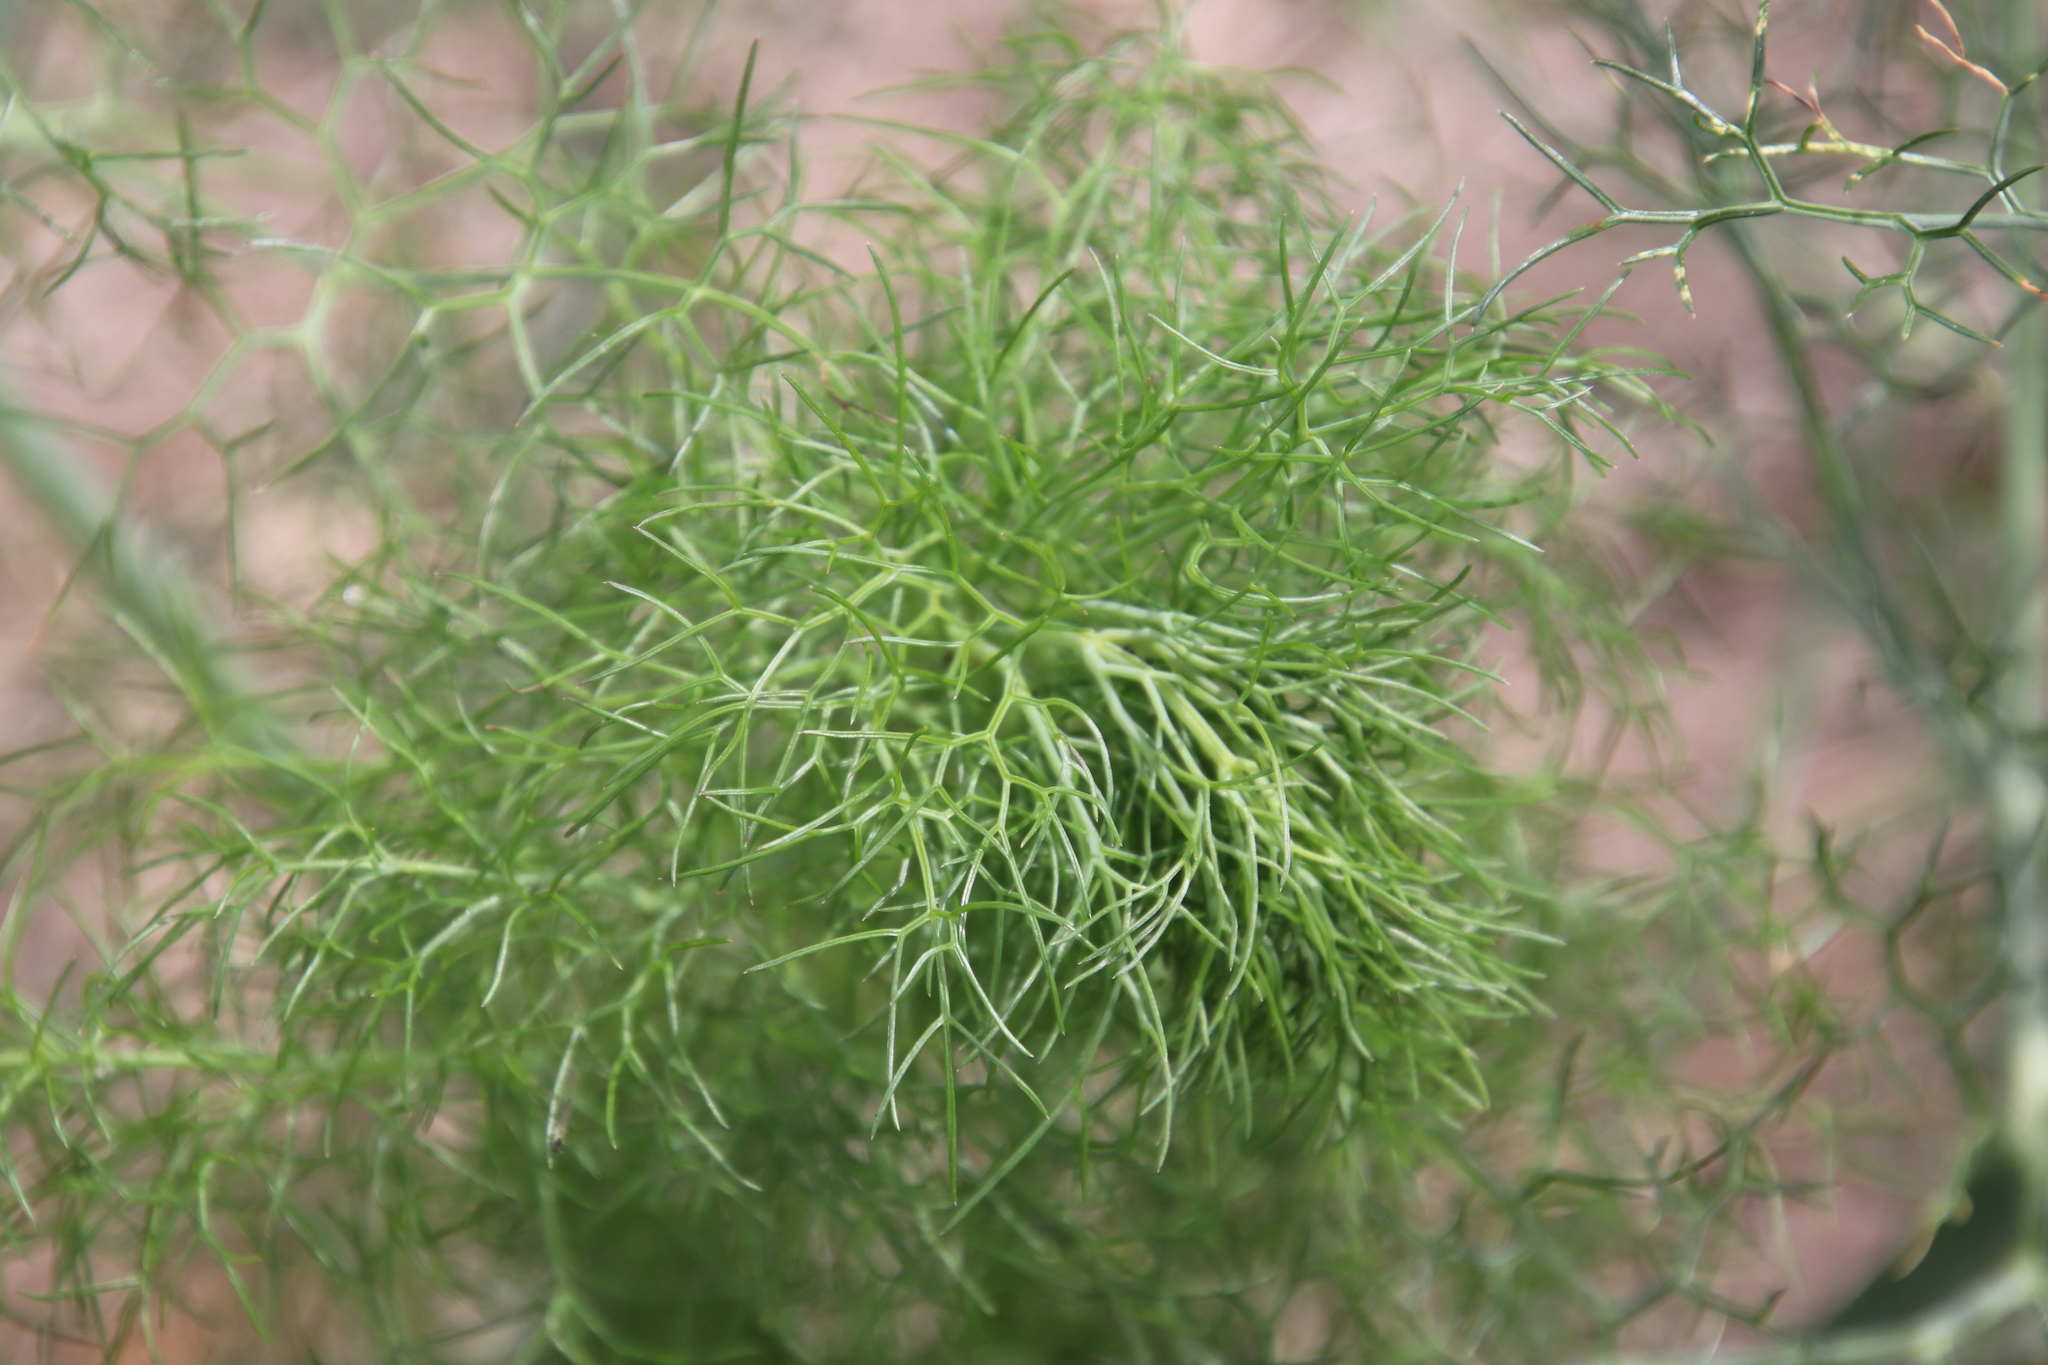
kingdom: Plantae
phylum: Tracheophyta
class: Magnoliopsida
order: Apiales
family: Apiaceae
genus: Foeniculum
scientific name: Foeniculum vulgare
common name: Fennel
